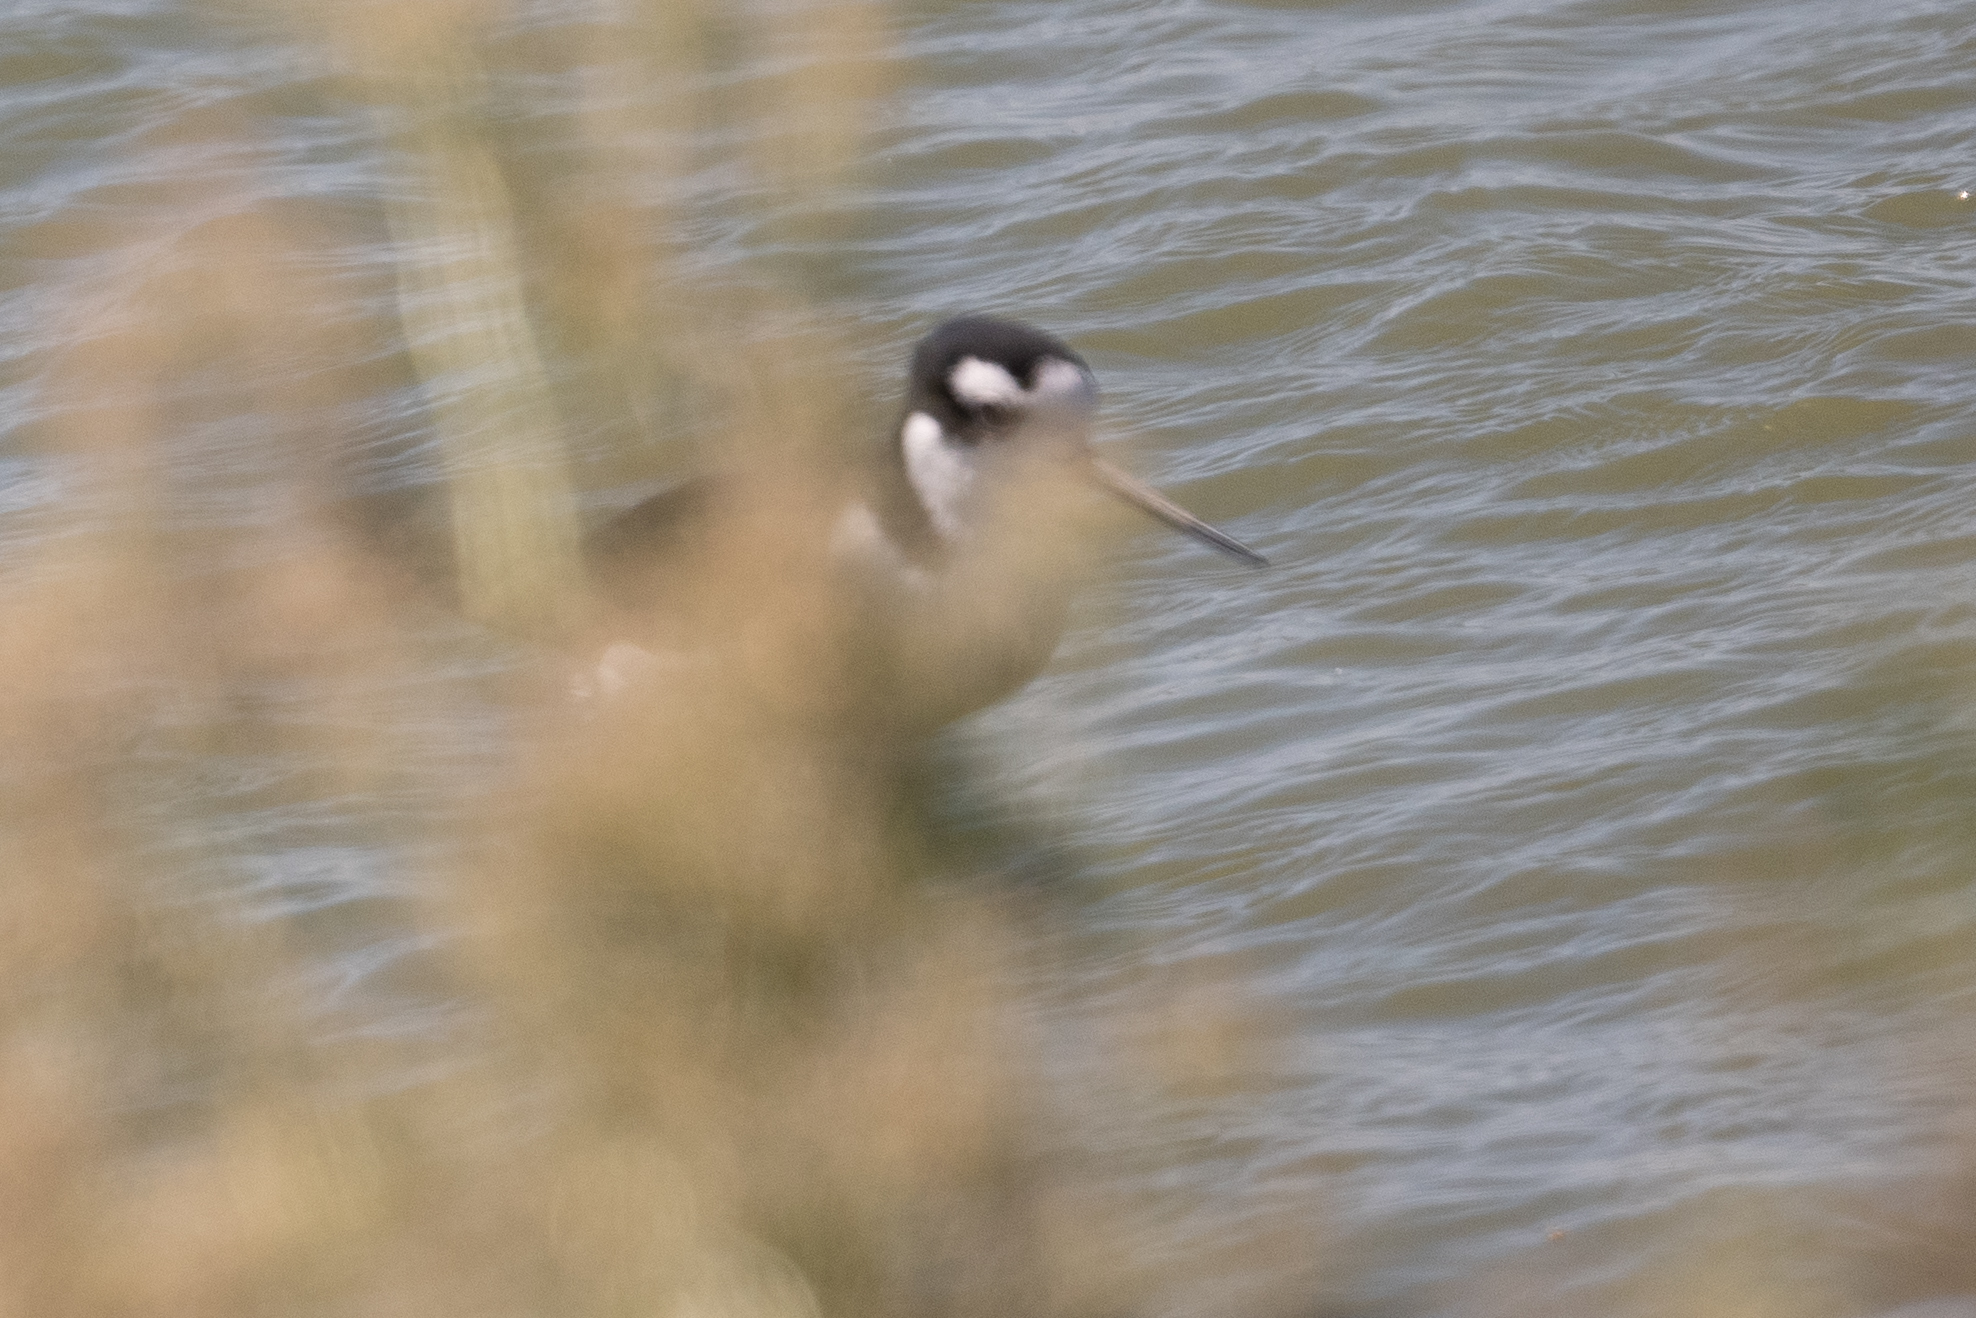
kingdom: Animalia
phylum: Chordata
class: Aves
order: Charadriiformes
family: Recurvirostridae
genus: Himantopus
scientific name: Himantopus mexicanus
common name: Black-necked stilt
